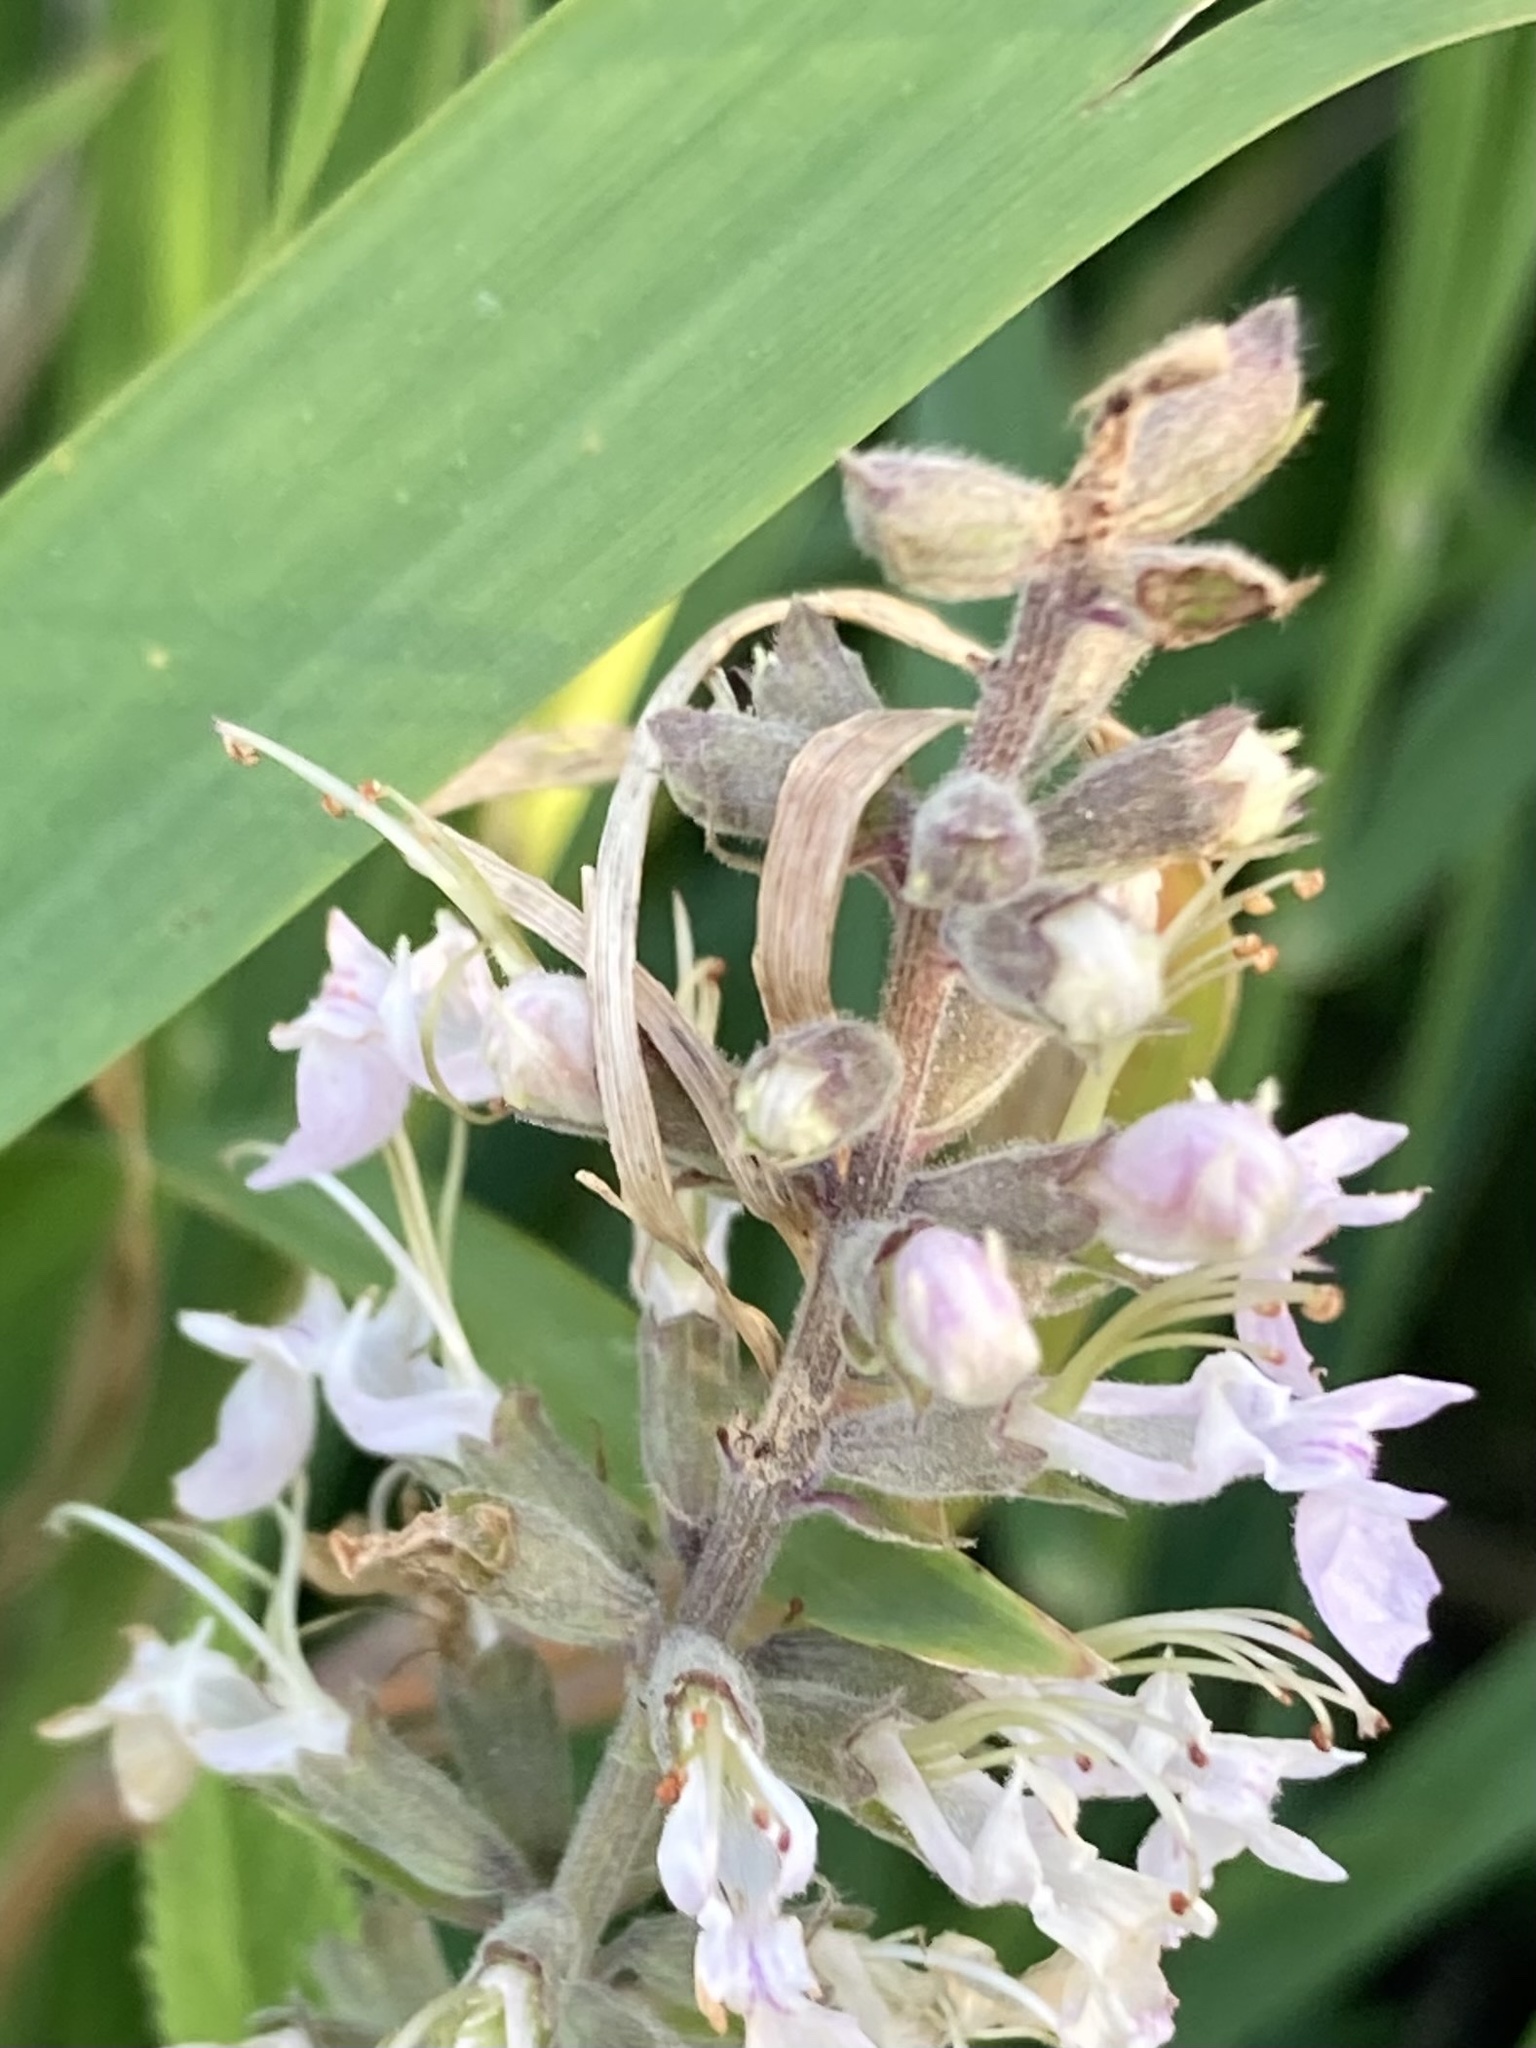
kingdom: Plantae
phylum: Tracheophyta
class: Magnoliopsida
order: Lamiales
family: Lamiaceae
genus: Teucrium
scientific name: Teucrium canadense
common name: American germander
